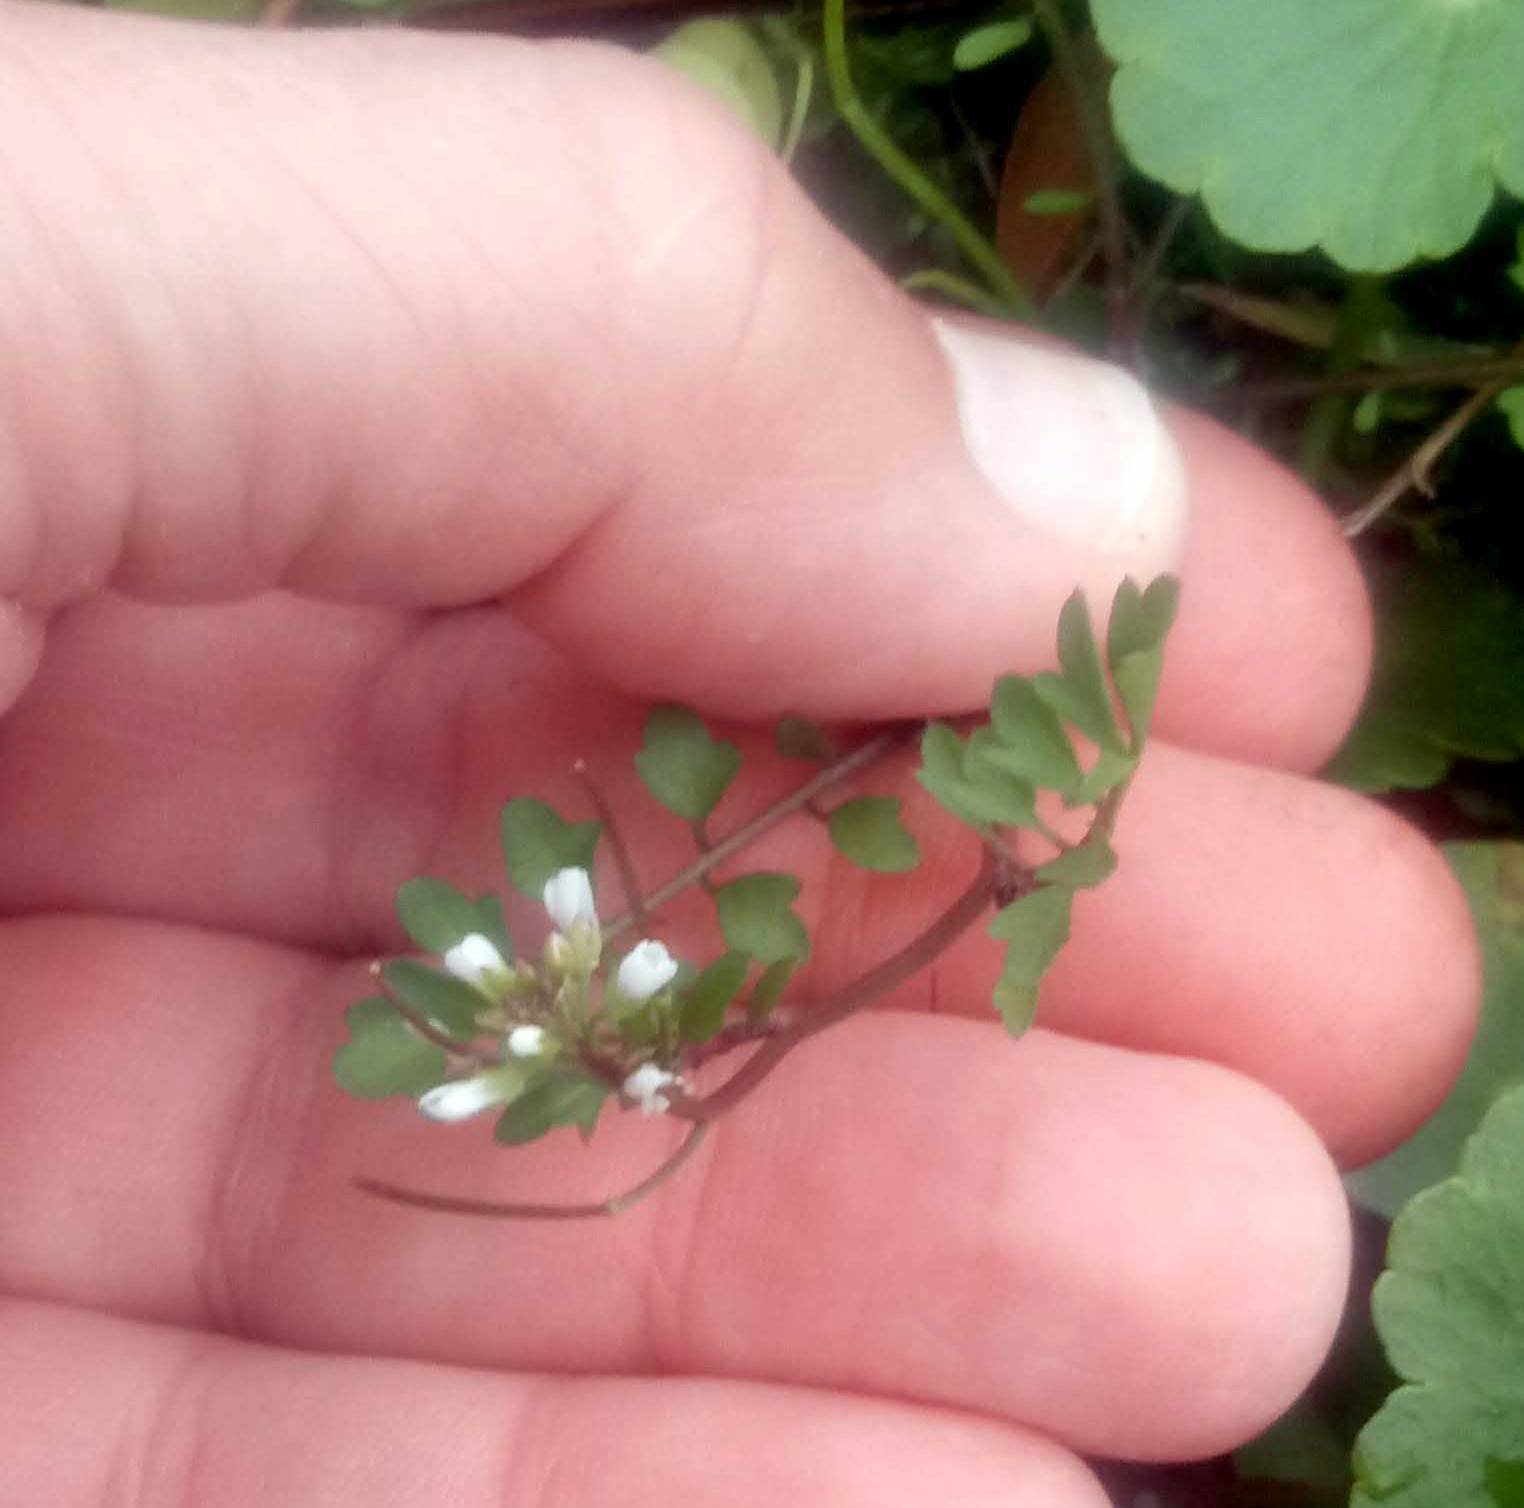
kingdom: Plantae
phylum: Tracheophyta
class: Magnoliopsida
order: Brassicales
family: Brassicaceae
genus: Cardamine
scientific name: Cardamine occulta
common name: Asian wavy bittercress
